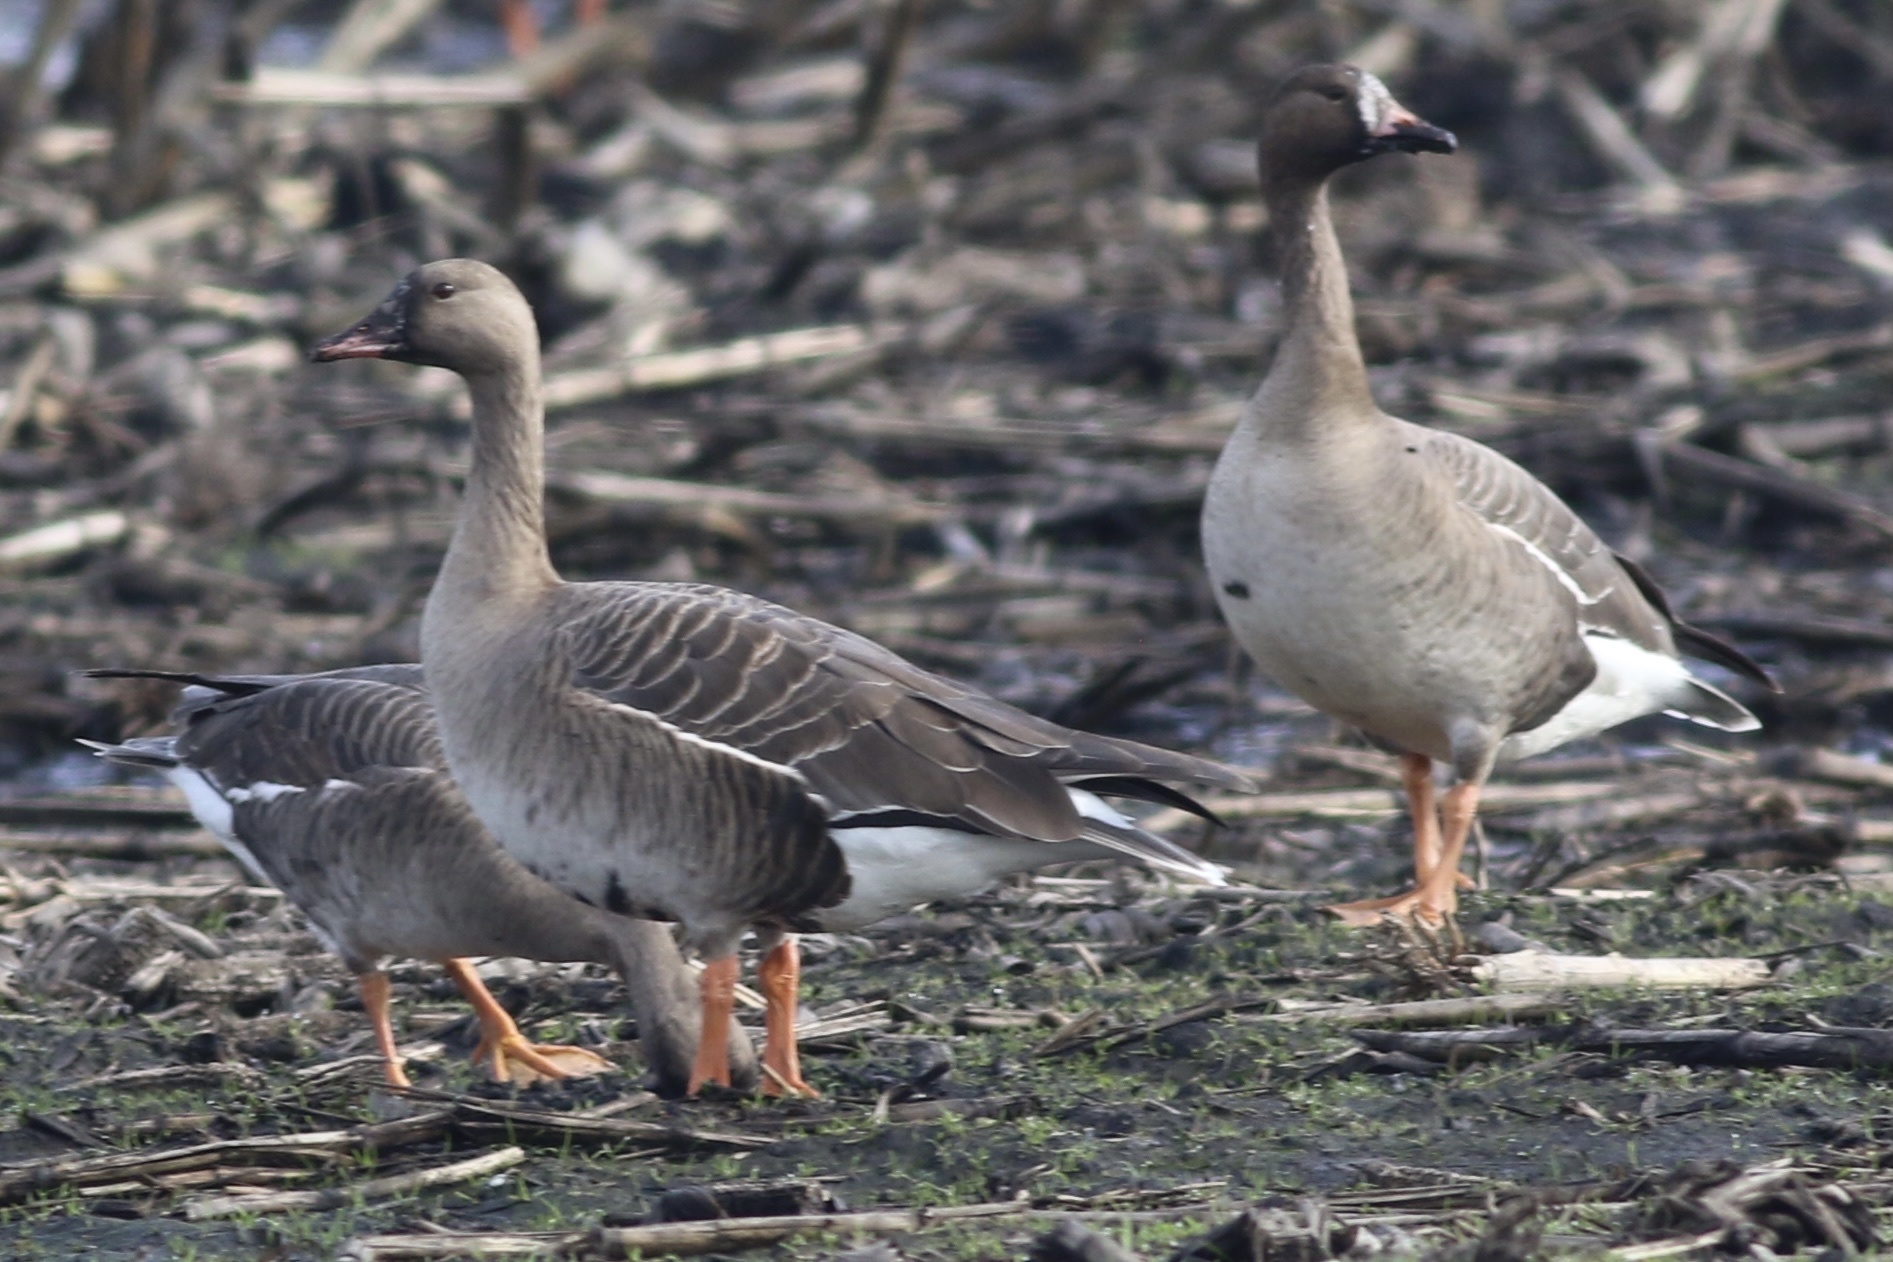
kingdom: Animalia
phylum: Chordata
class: Aves
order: Anseriformes
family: Anatidae
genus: Anser
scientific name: Anser albifrons
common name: Greater white-fronted goose
